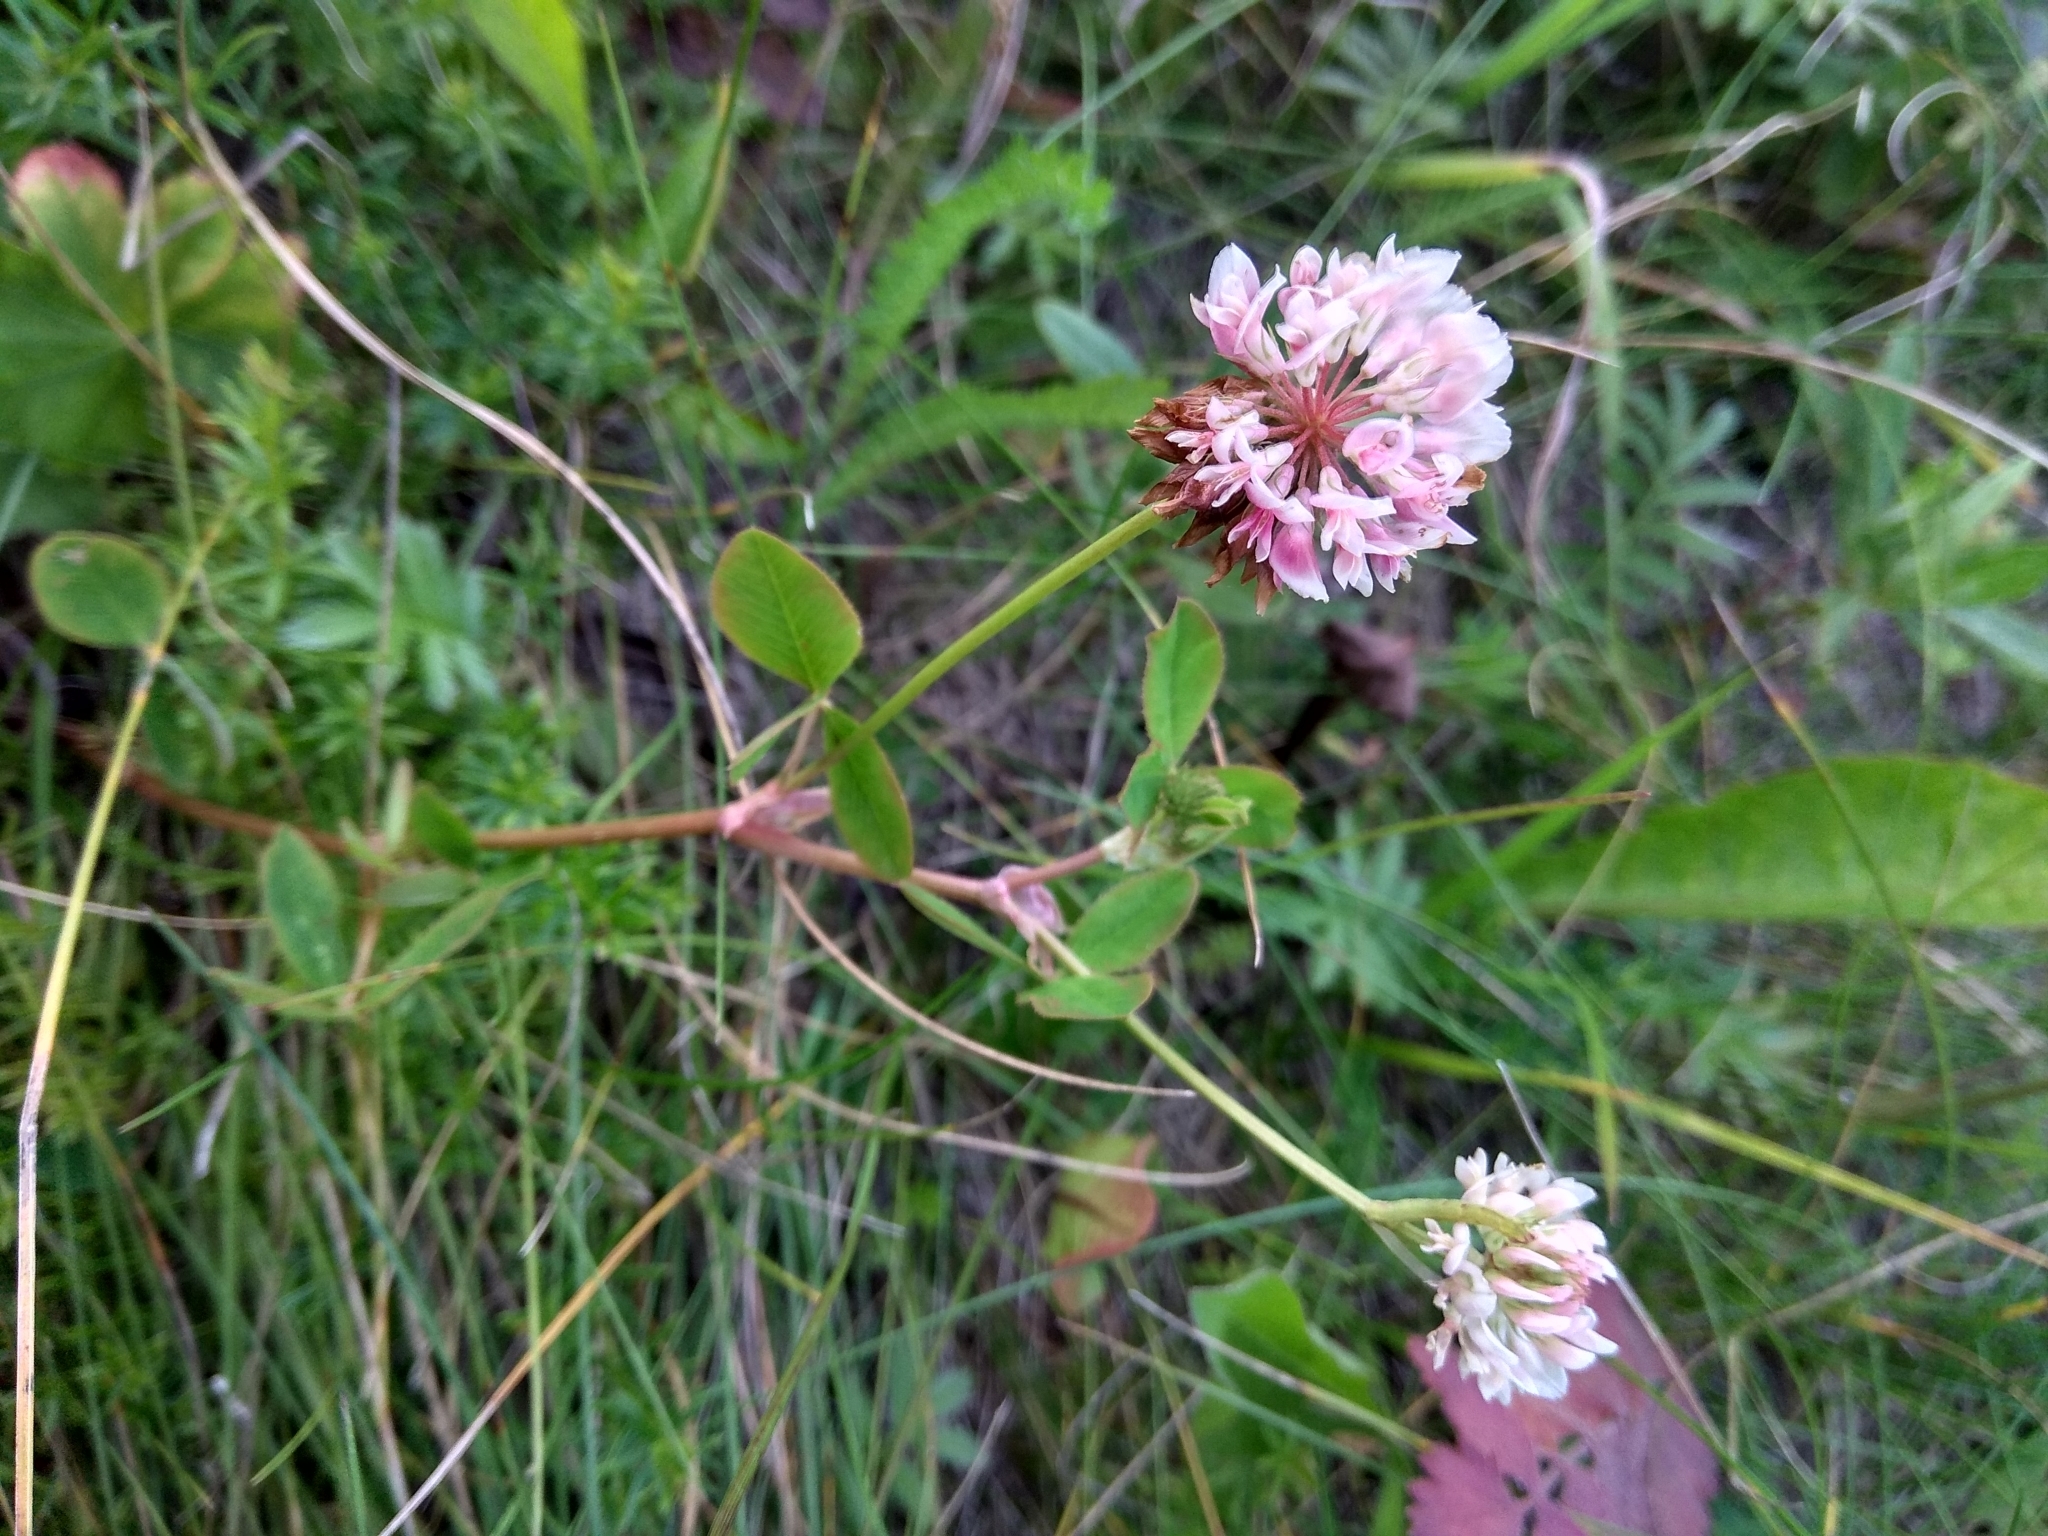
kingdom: Plantae
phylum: Tracheophyta
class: Magnoliopsida
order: Fabales
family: Fabaceae
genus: Trifolium
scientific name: Trifolium hybridum
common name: Alsike clover
